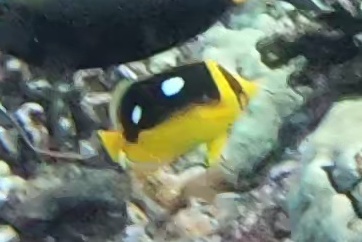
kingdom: Animalia
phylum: Chordata
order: Perciformes
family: Chaetodontidae
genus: Chaetodon
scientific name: Chaetodon quadrimaculatus
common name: Fourspot butterflyfish
